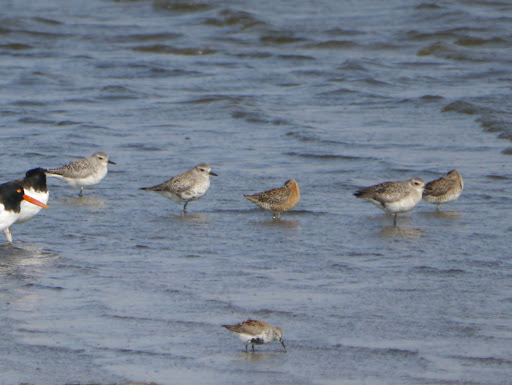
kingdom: Animalia
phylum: Chordata
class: Aves
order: Charadriiformes
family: Charadriidae
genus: Pluvialis
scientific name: Pluvialis squatarola
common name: Grey plover
